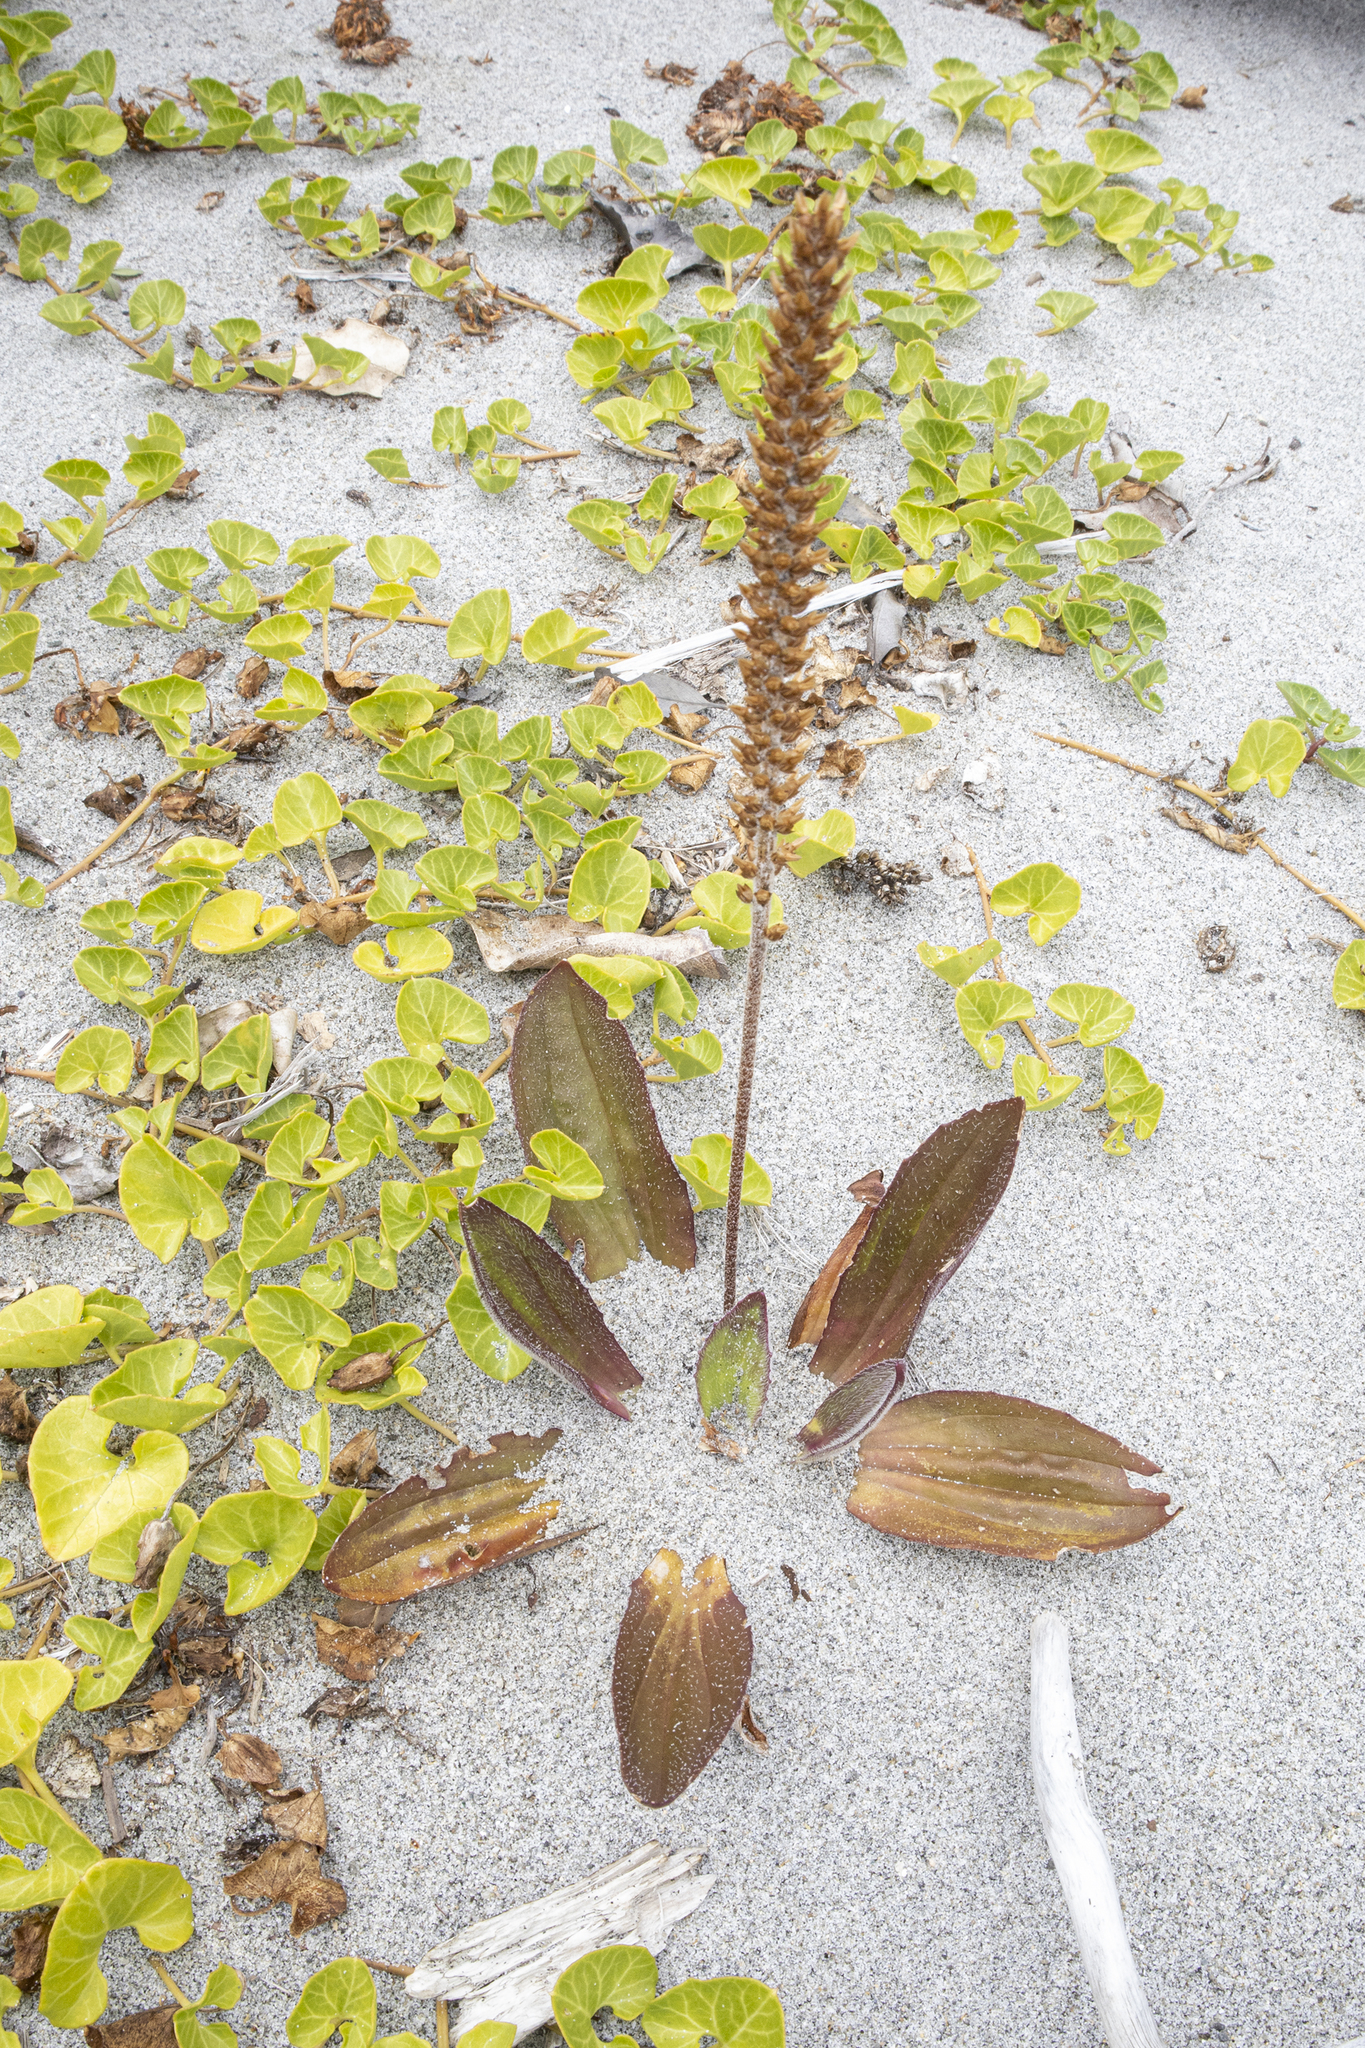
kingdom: Plantae
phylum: Tracheophyta
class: Magnoliopsida
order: Lamiales
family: Plantaginaceae
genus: Plantago
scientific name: Plantago australis
